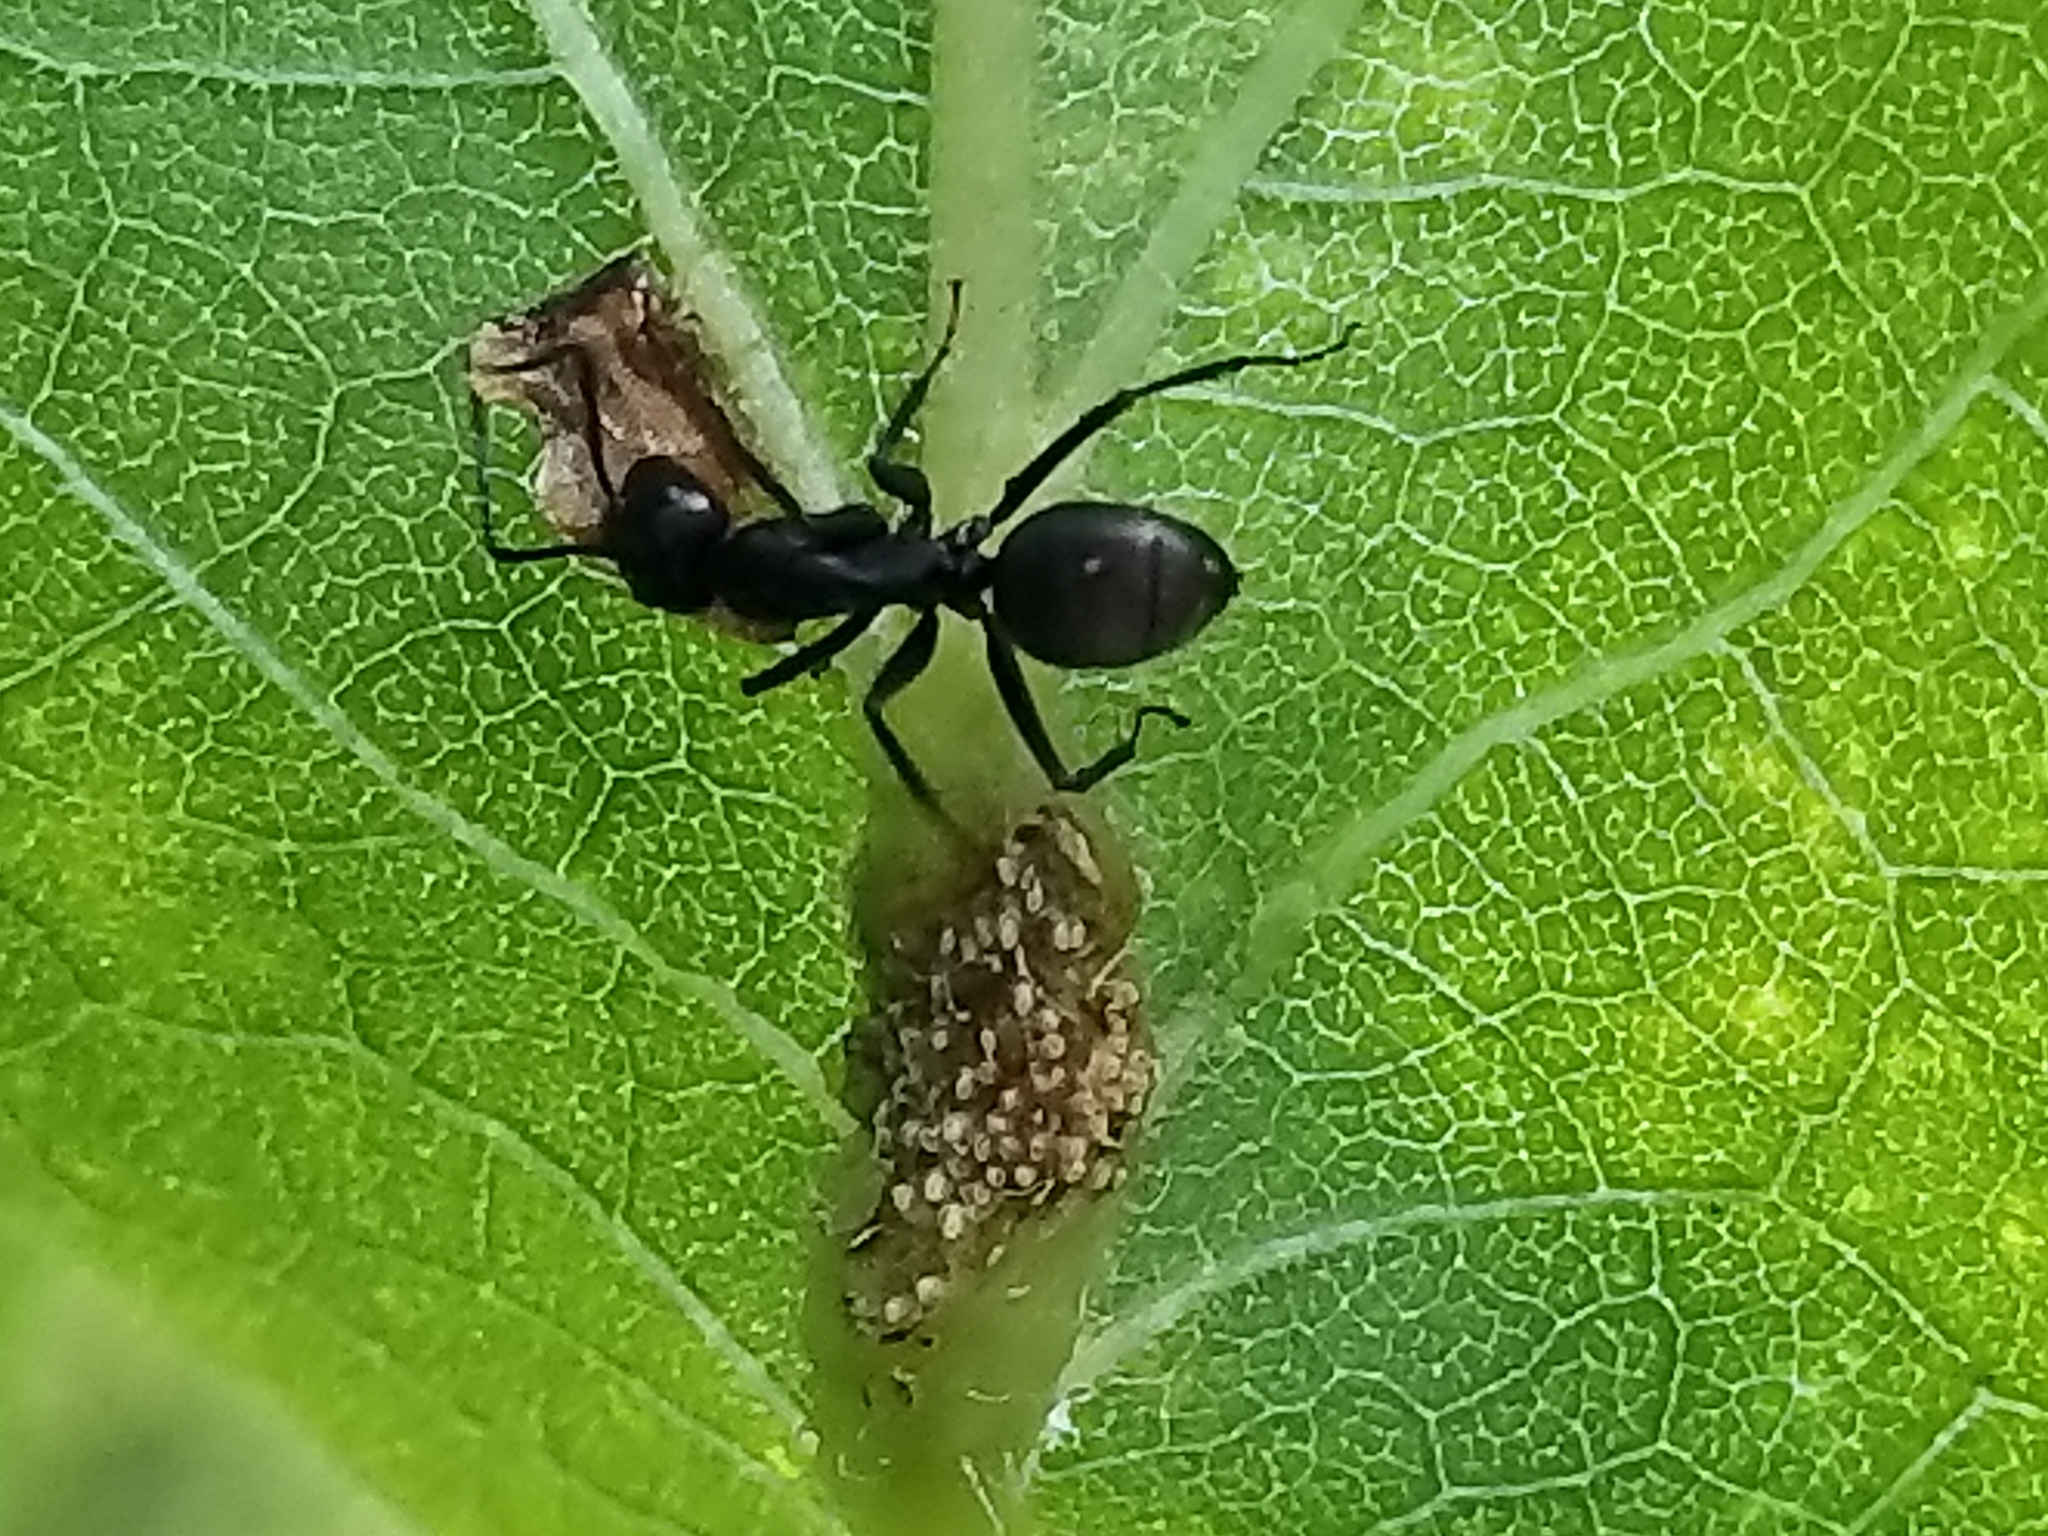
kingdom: Animalia
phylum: Arthropoda
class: Insecta
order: Hymenoptera
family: Formicidae
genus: Camponotus
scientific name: Camponotus pennsylvanicus
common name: Black carpenter ant
